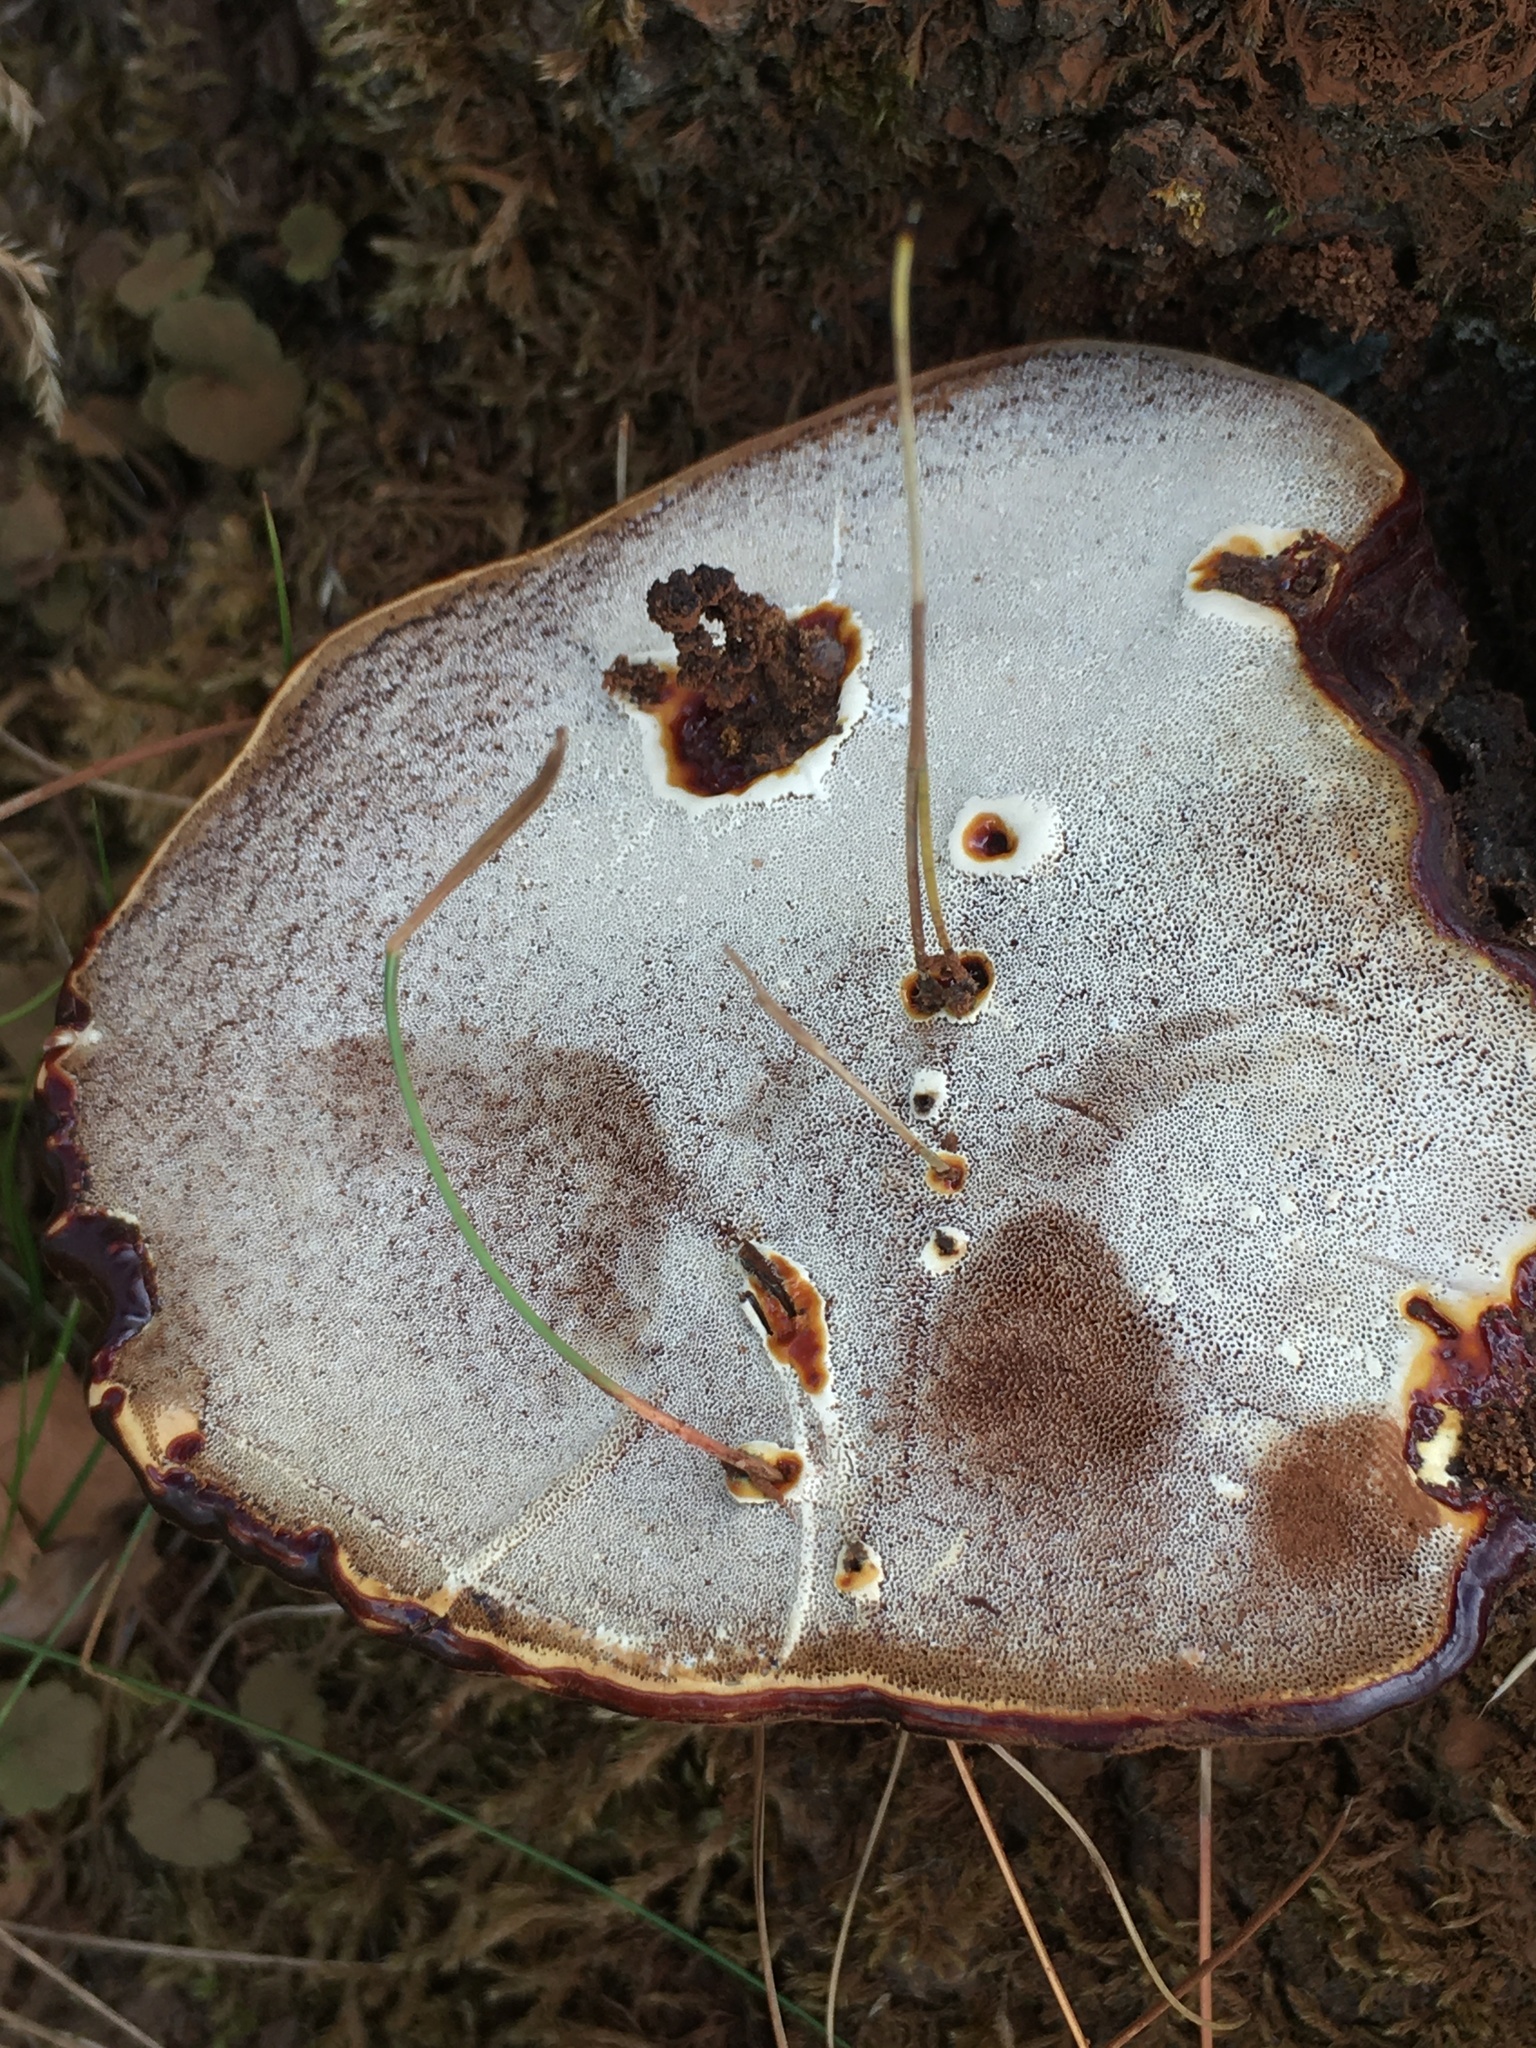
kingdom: Fungi
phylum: Basidiomycota
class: Agaricomycetes
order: Polyporales
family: Polyporaceae
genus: Ganoderma
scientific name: Ganoderma applanatum
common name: Artist's bracket
